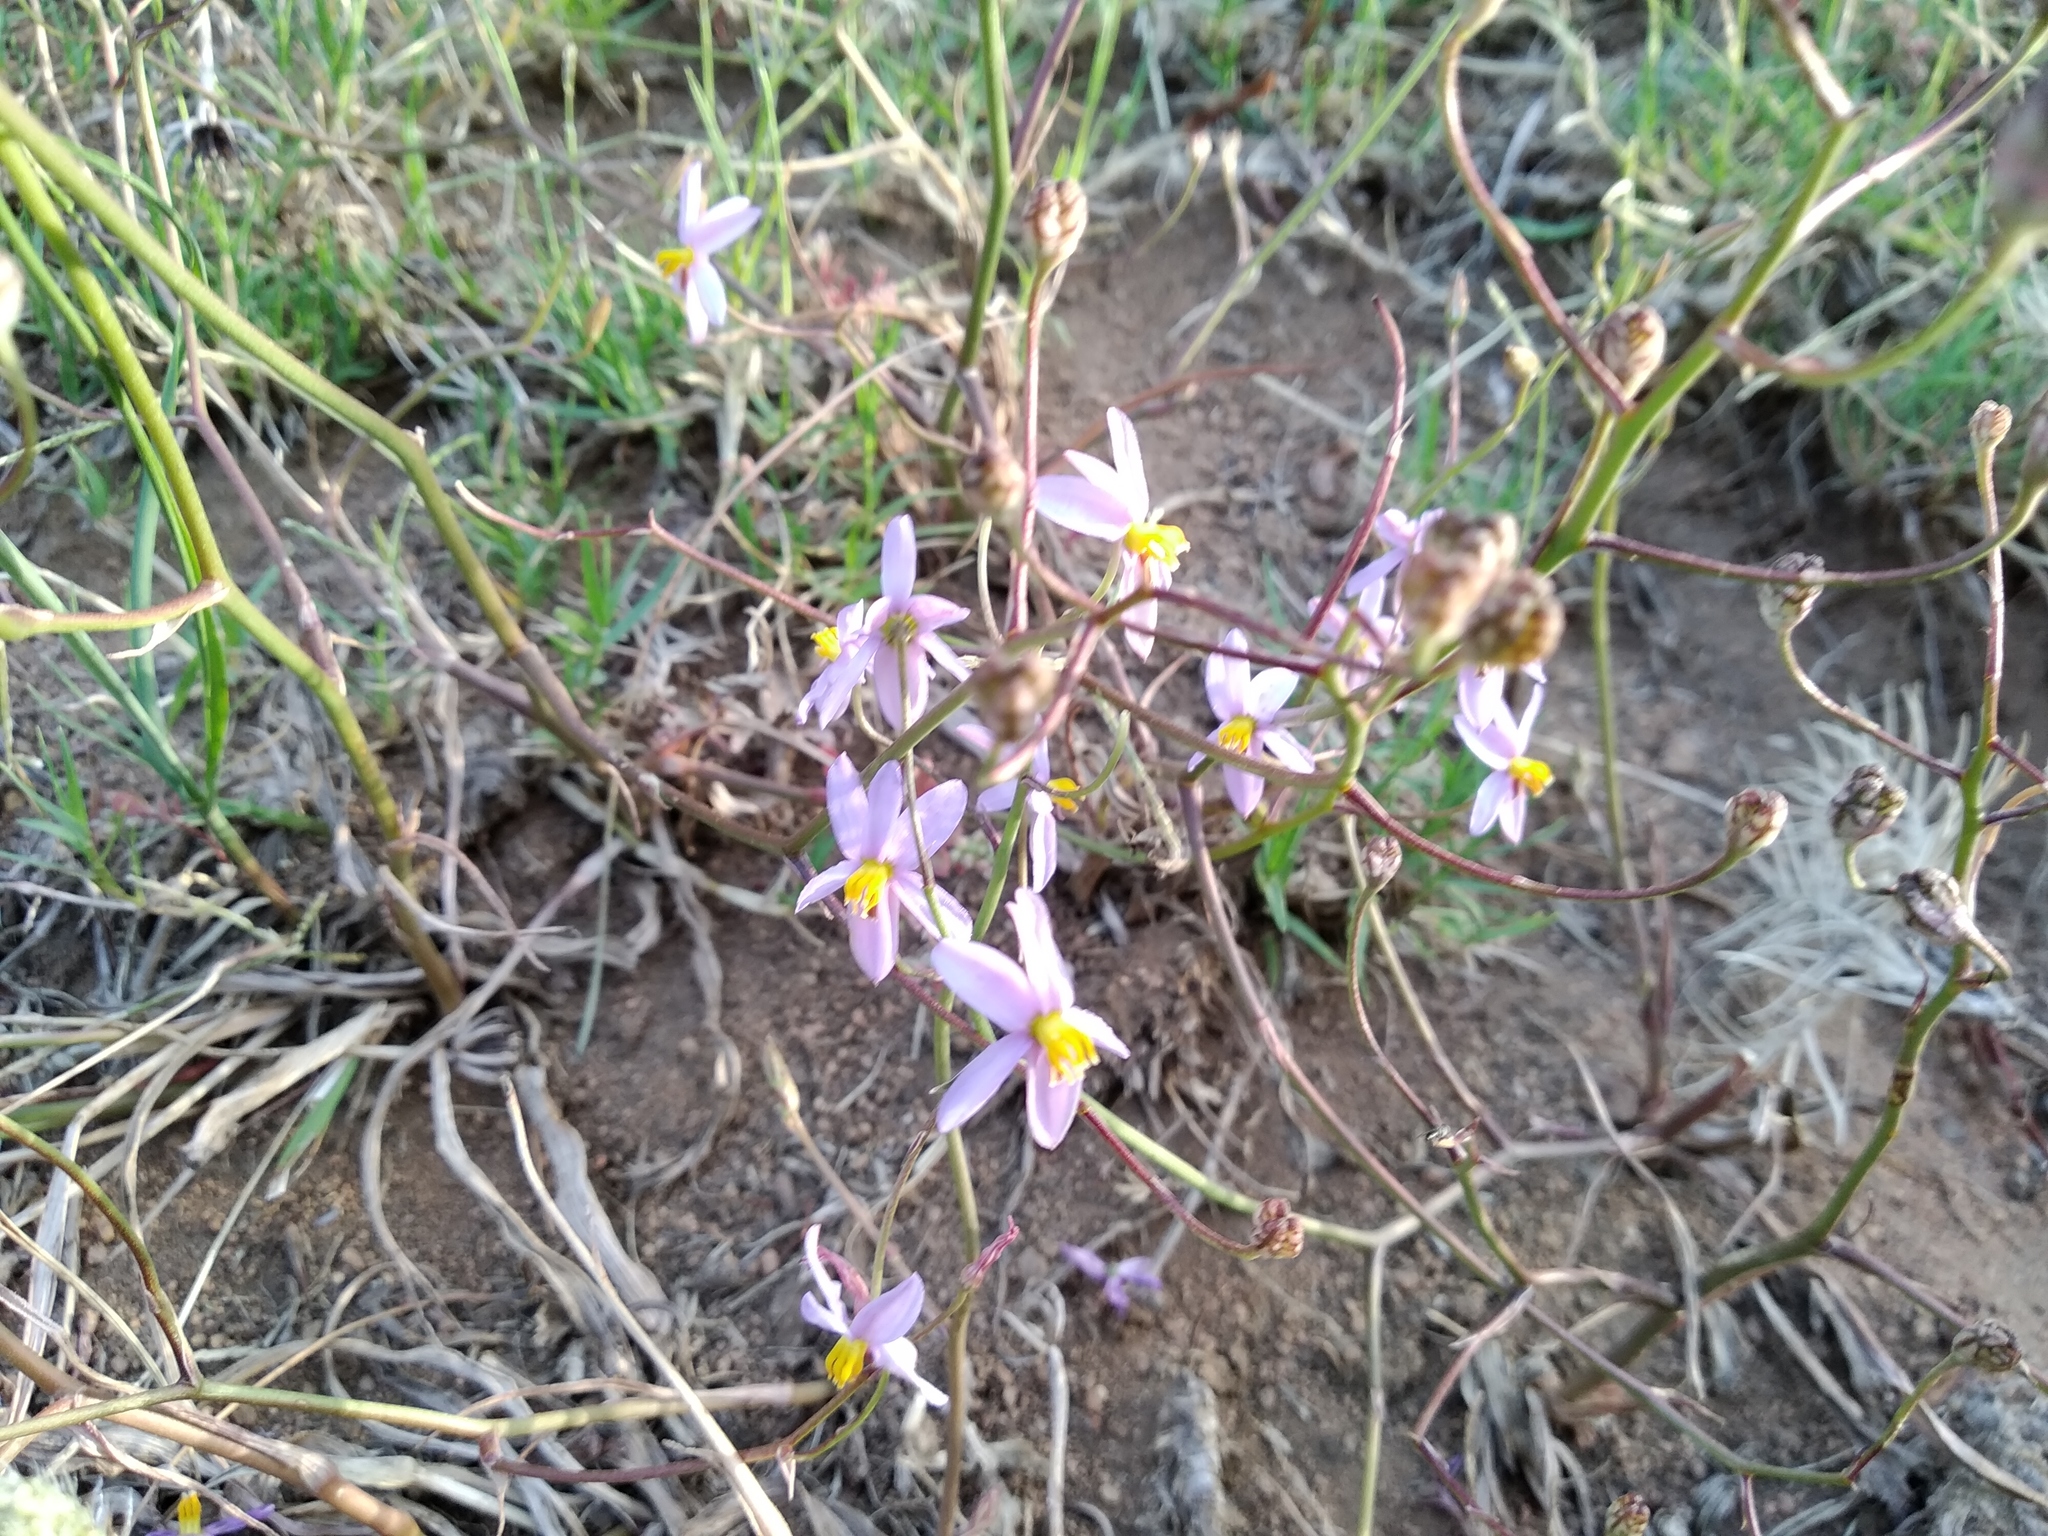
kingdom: Plantae
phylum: Tracheophyta
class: Liliopsida
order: Asparagales
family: Tecophilaeaceae
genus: Cyanella
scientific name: Cyanella hyacinthoides
